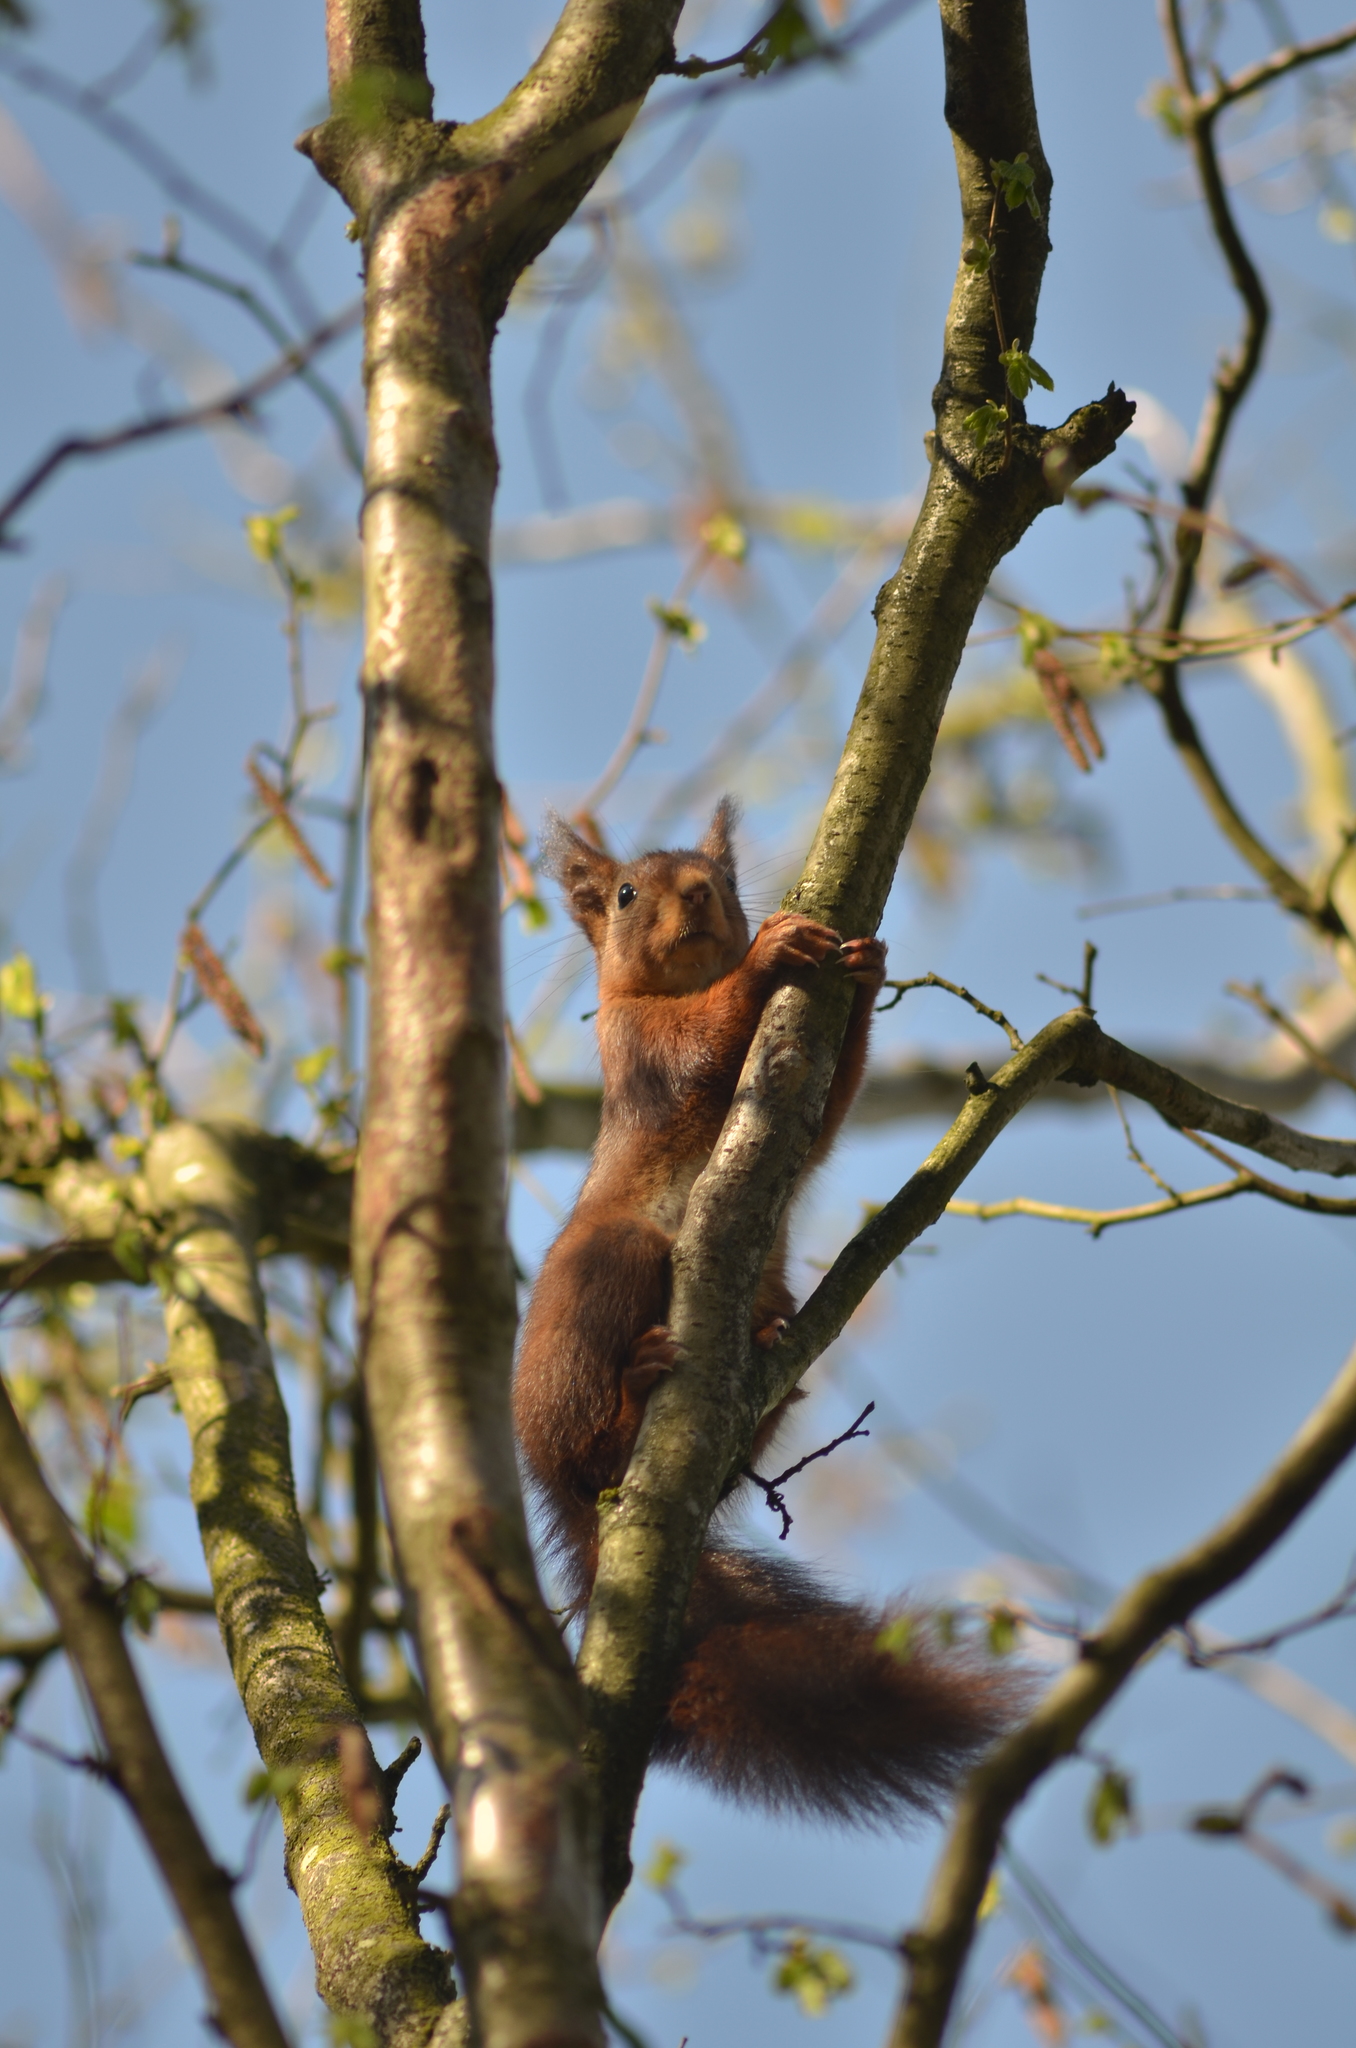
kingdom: Animalia
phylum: Chordata
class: Mammalia
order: Rodentia
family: Sciuridae
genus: Sciurus
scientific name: Sciurus vulgaris
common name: Eurasian red squirrel
